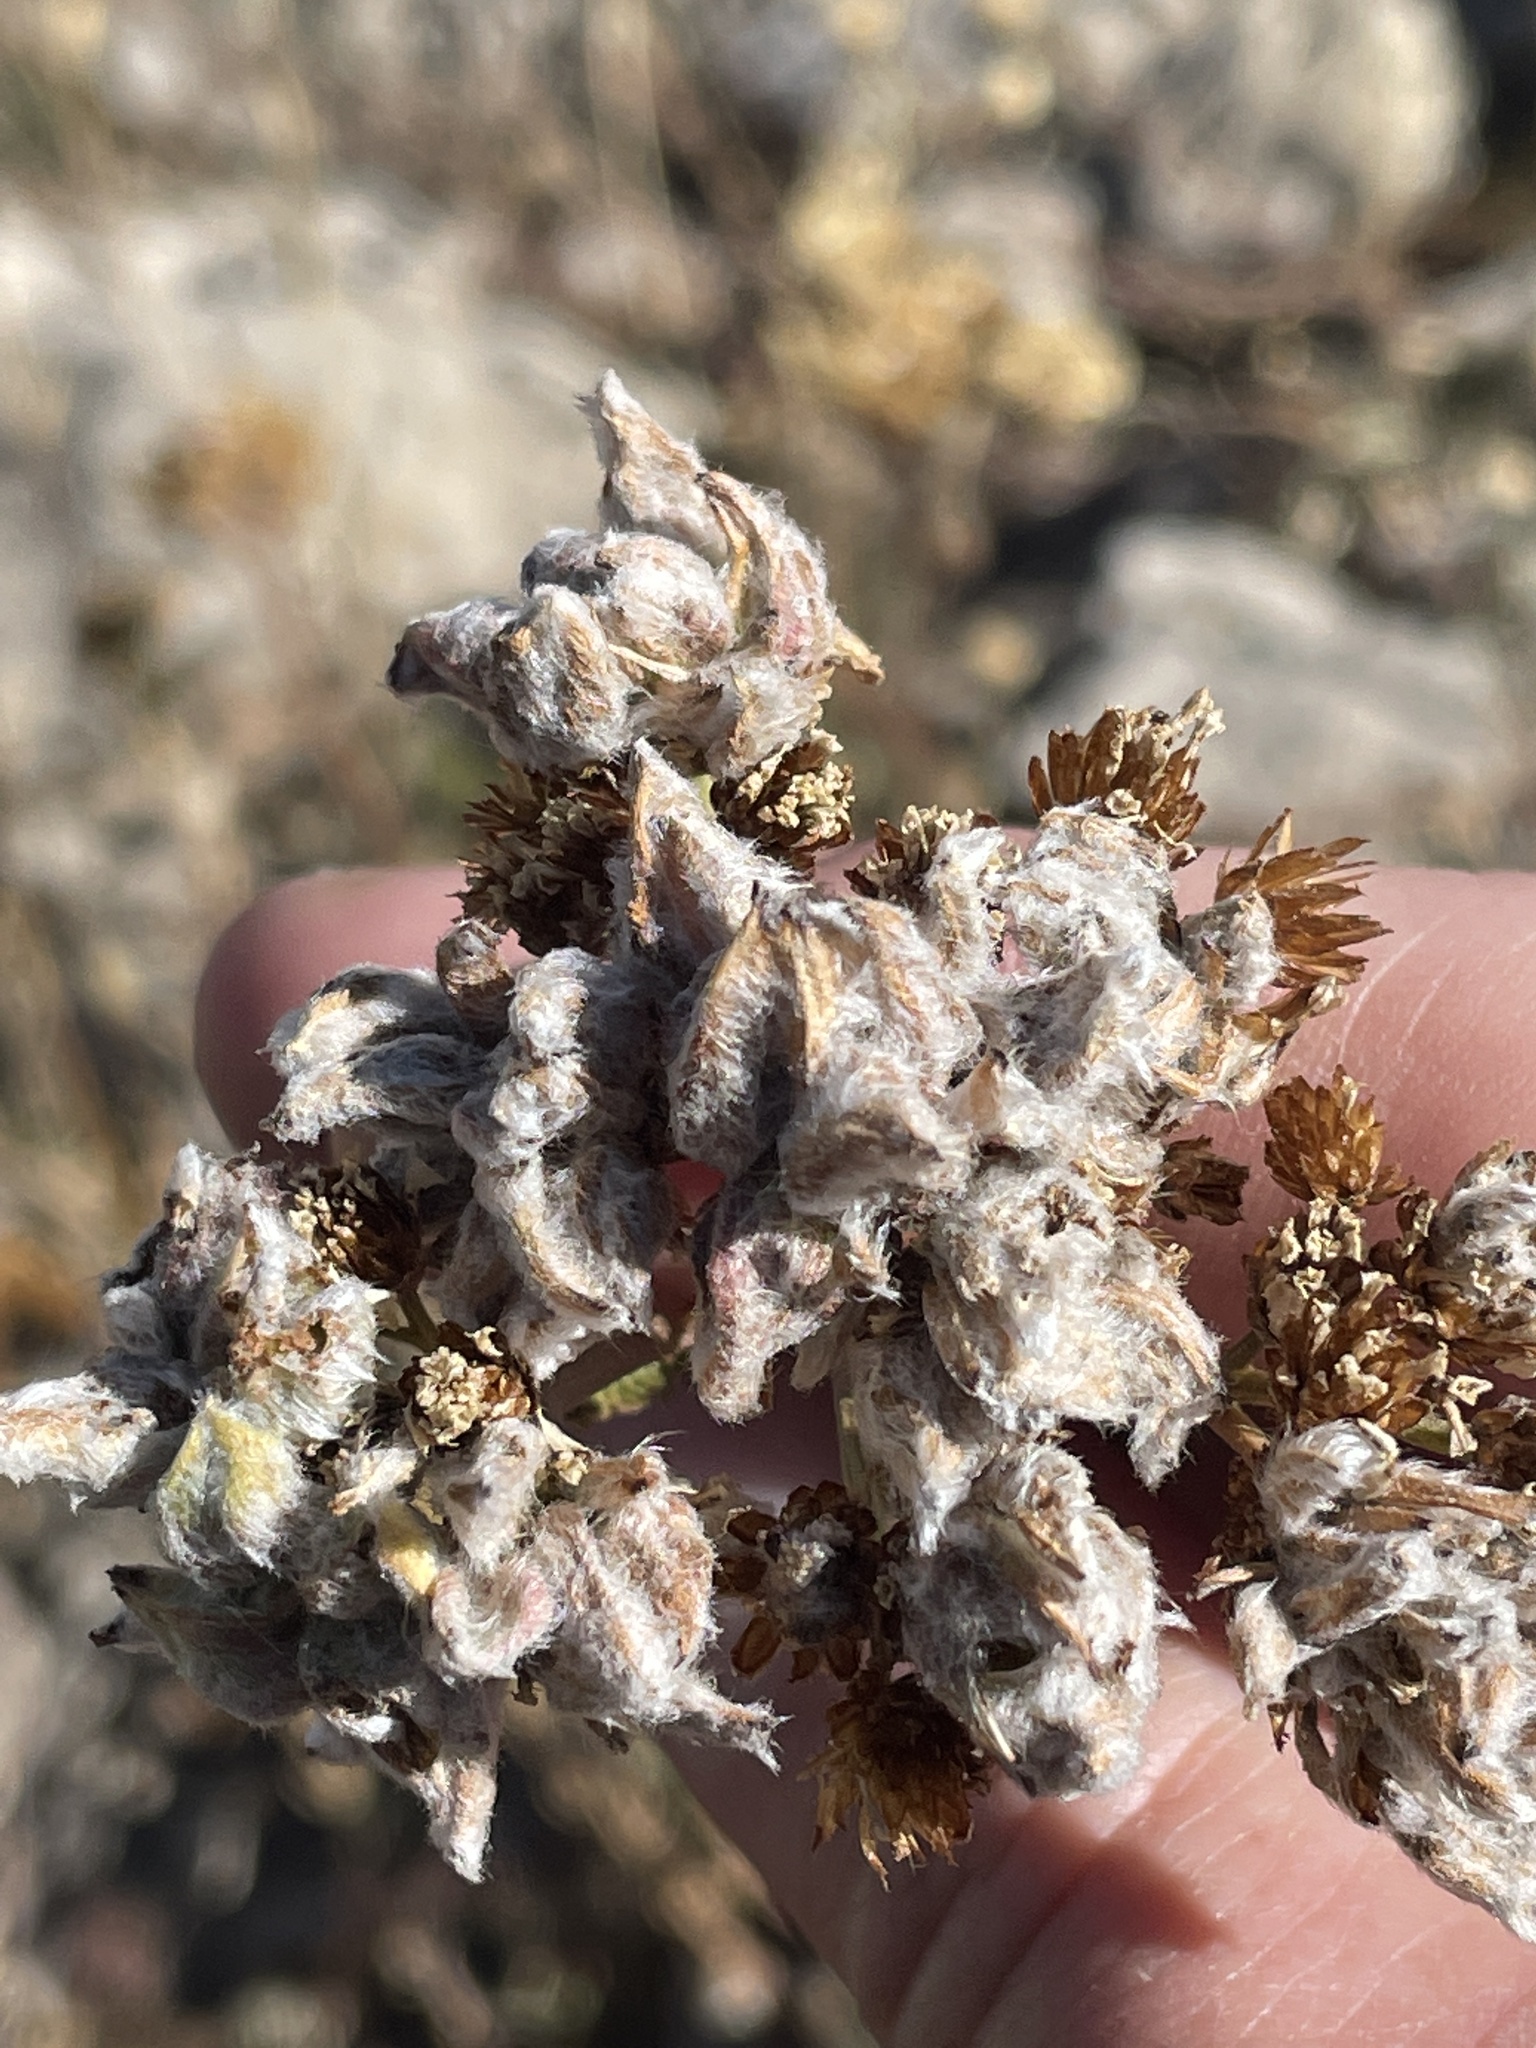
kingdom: Animalia
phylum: Arthropoda
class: Arachnida
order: Trombidiformes
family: Eriophyidae
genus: Aceria
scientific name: Aceria kiefferi
